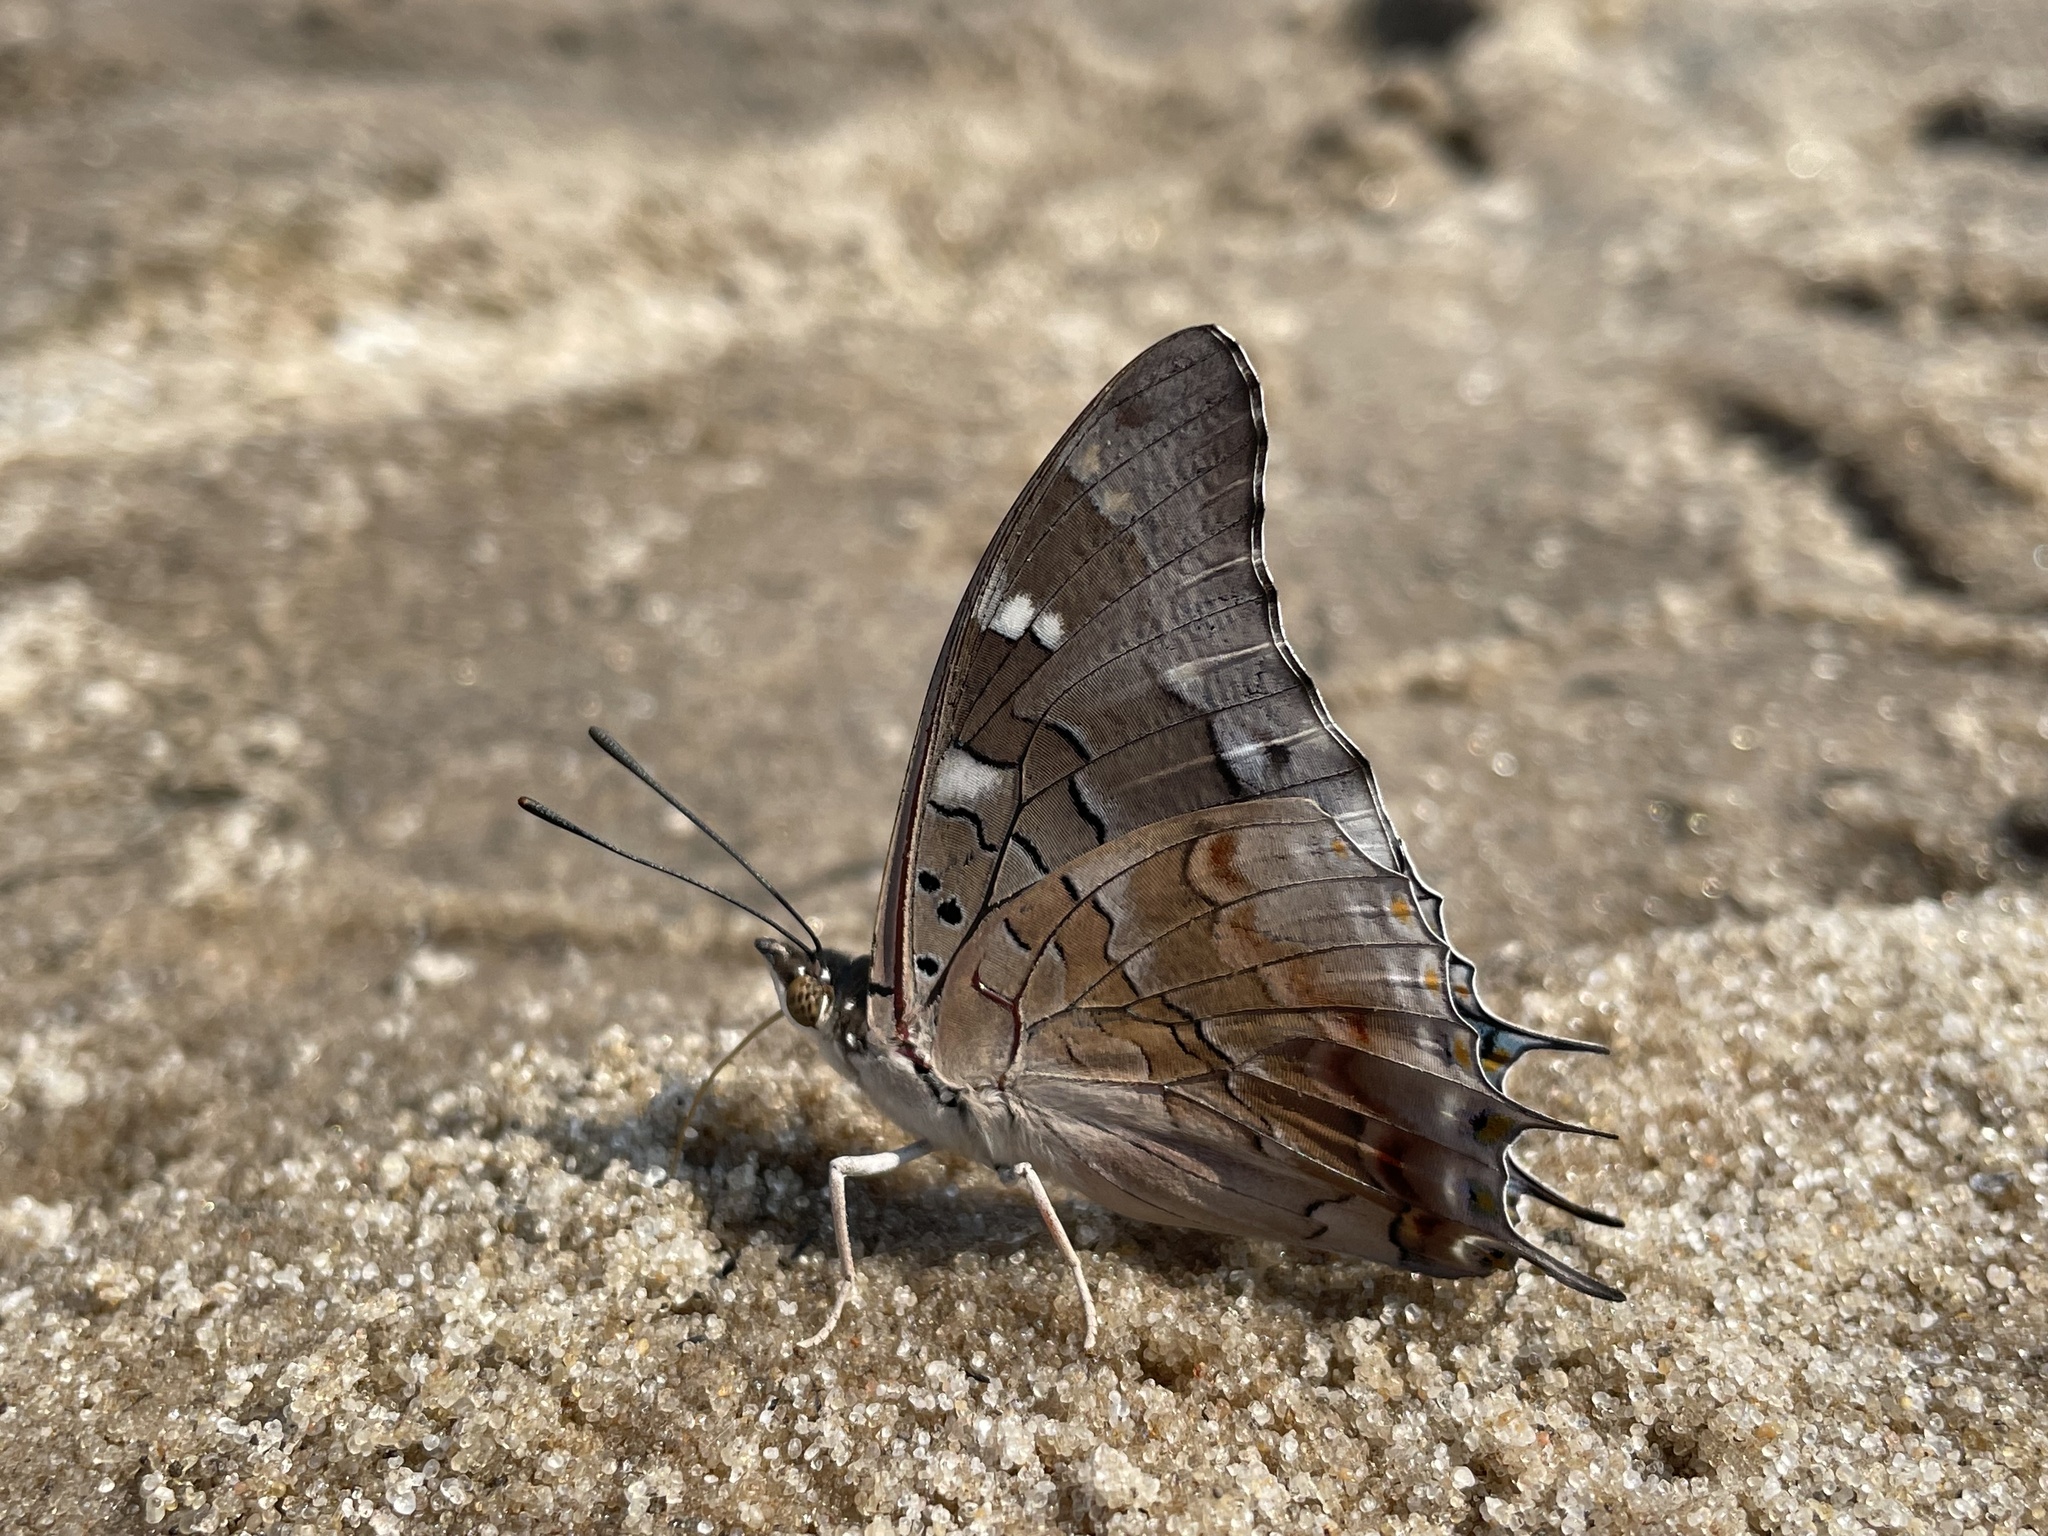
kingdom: Animalia
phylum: Arthropoda
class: Insecta
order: Lepidoptera
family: Nymphalidae
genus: Charaxes
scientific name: Charaxes guderiana
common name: Blue-spangled charaxes
